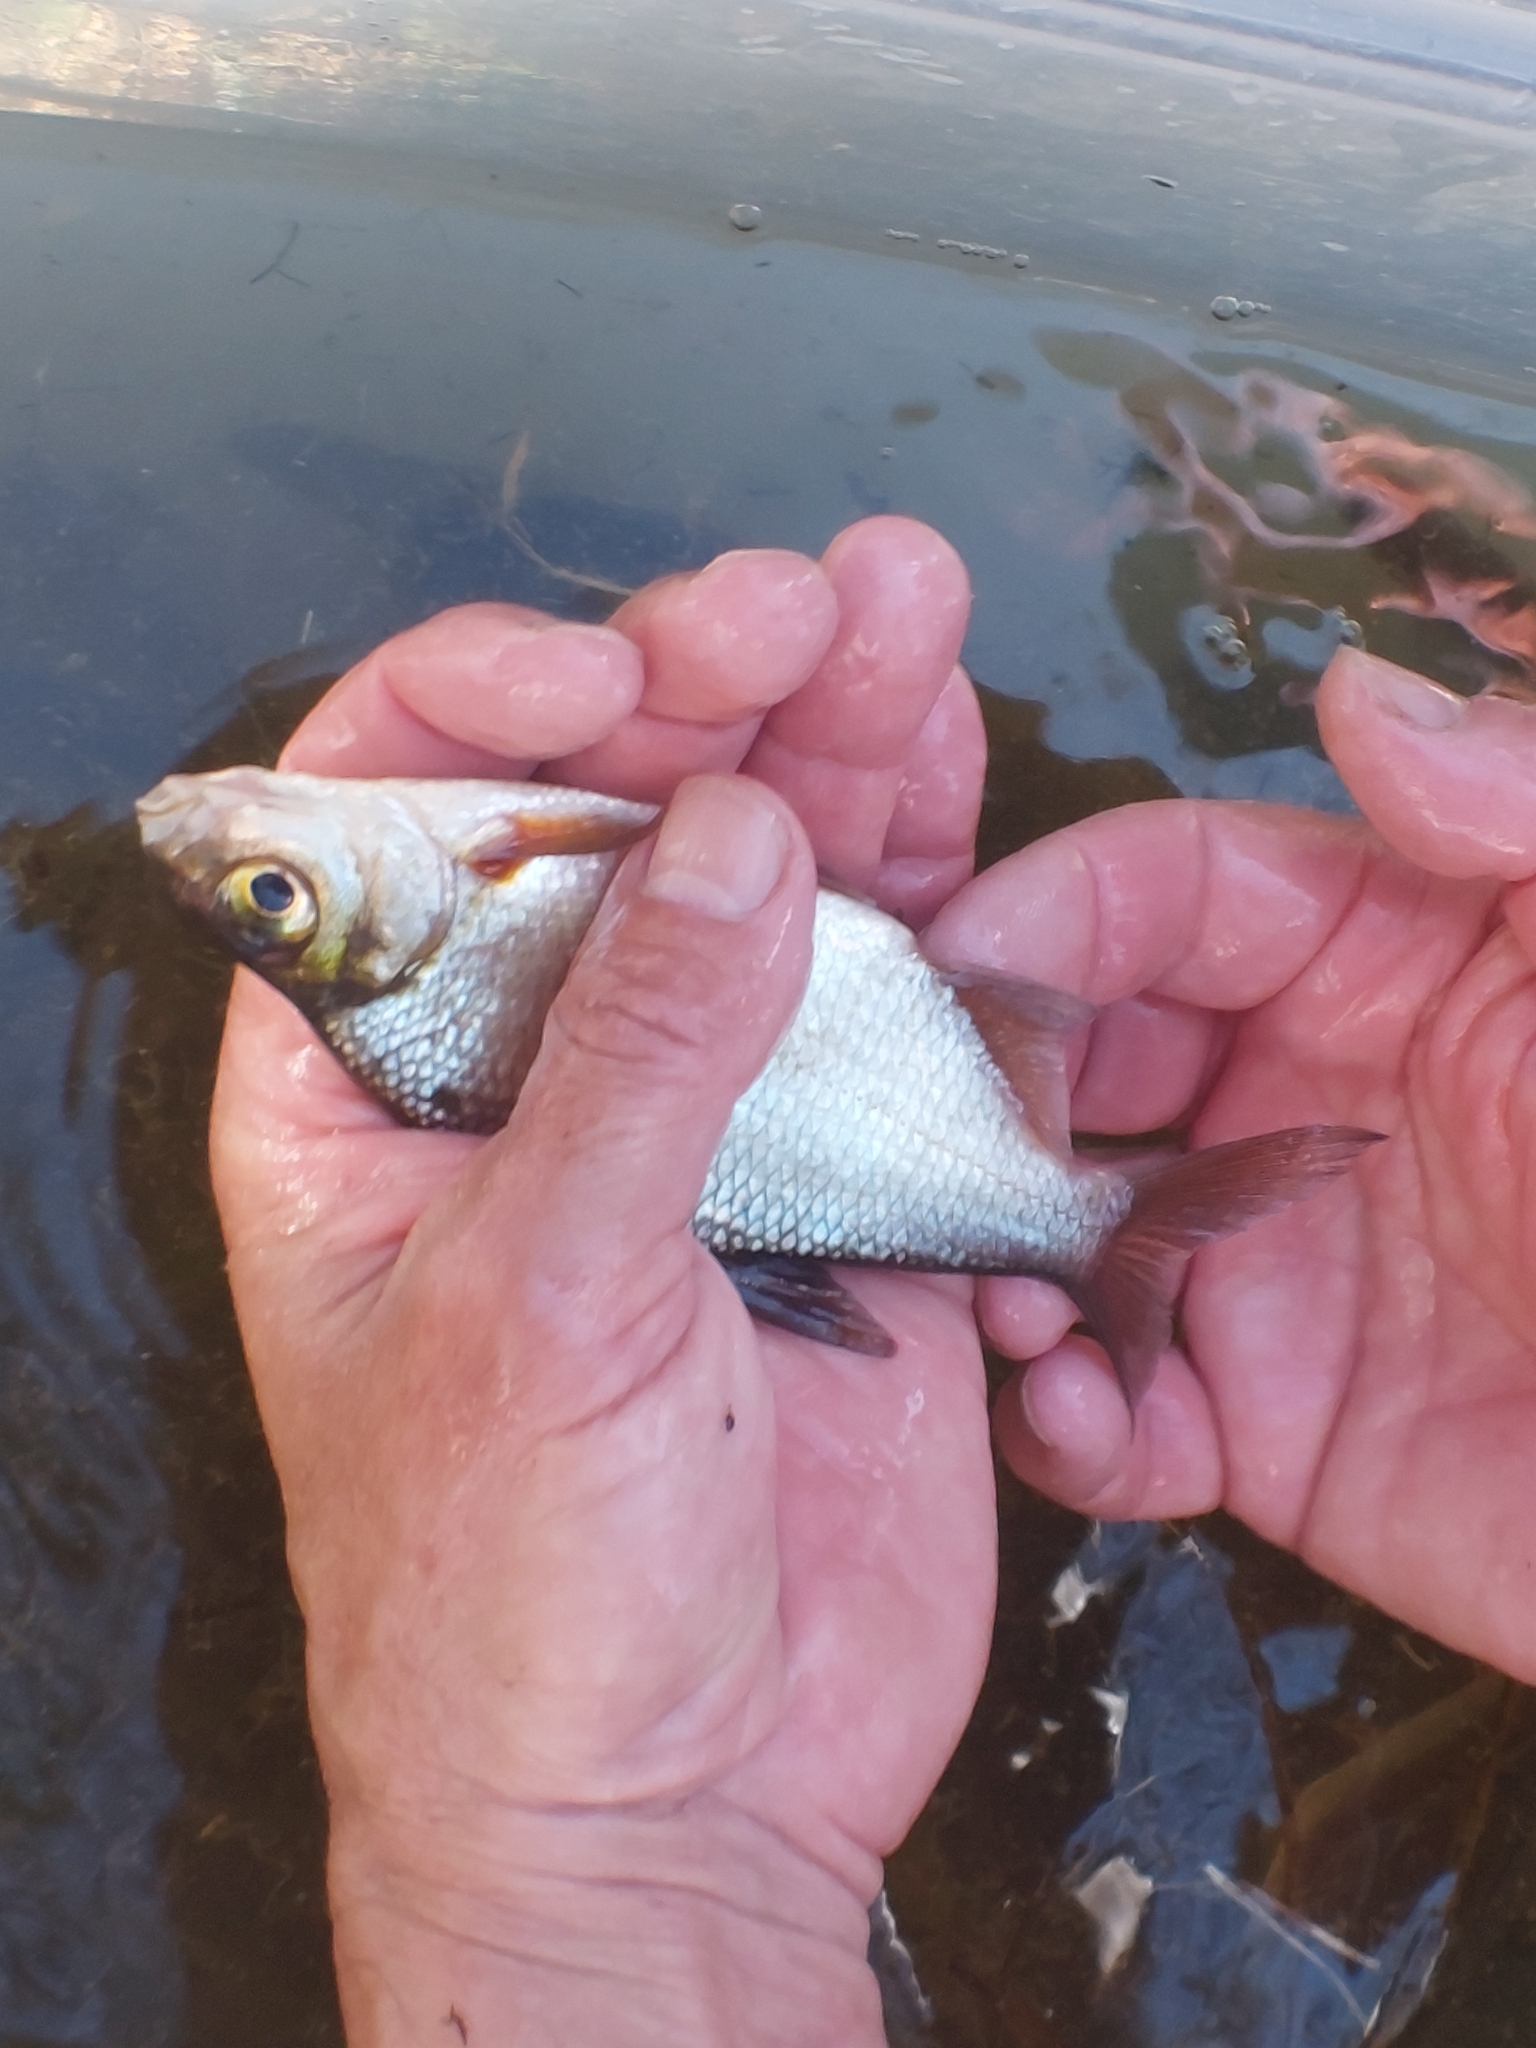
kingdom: Animalia
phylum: Chordata
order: Cypriniformes
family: Cyprinidae
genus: Blicca
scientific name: Blicca bjoerkna
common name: White bream
